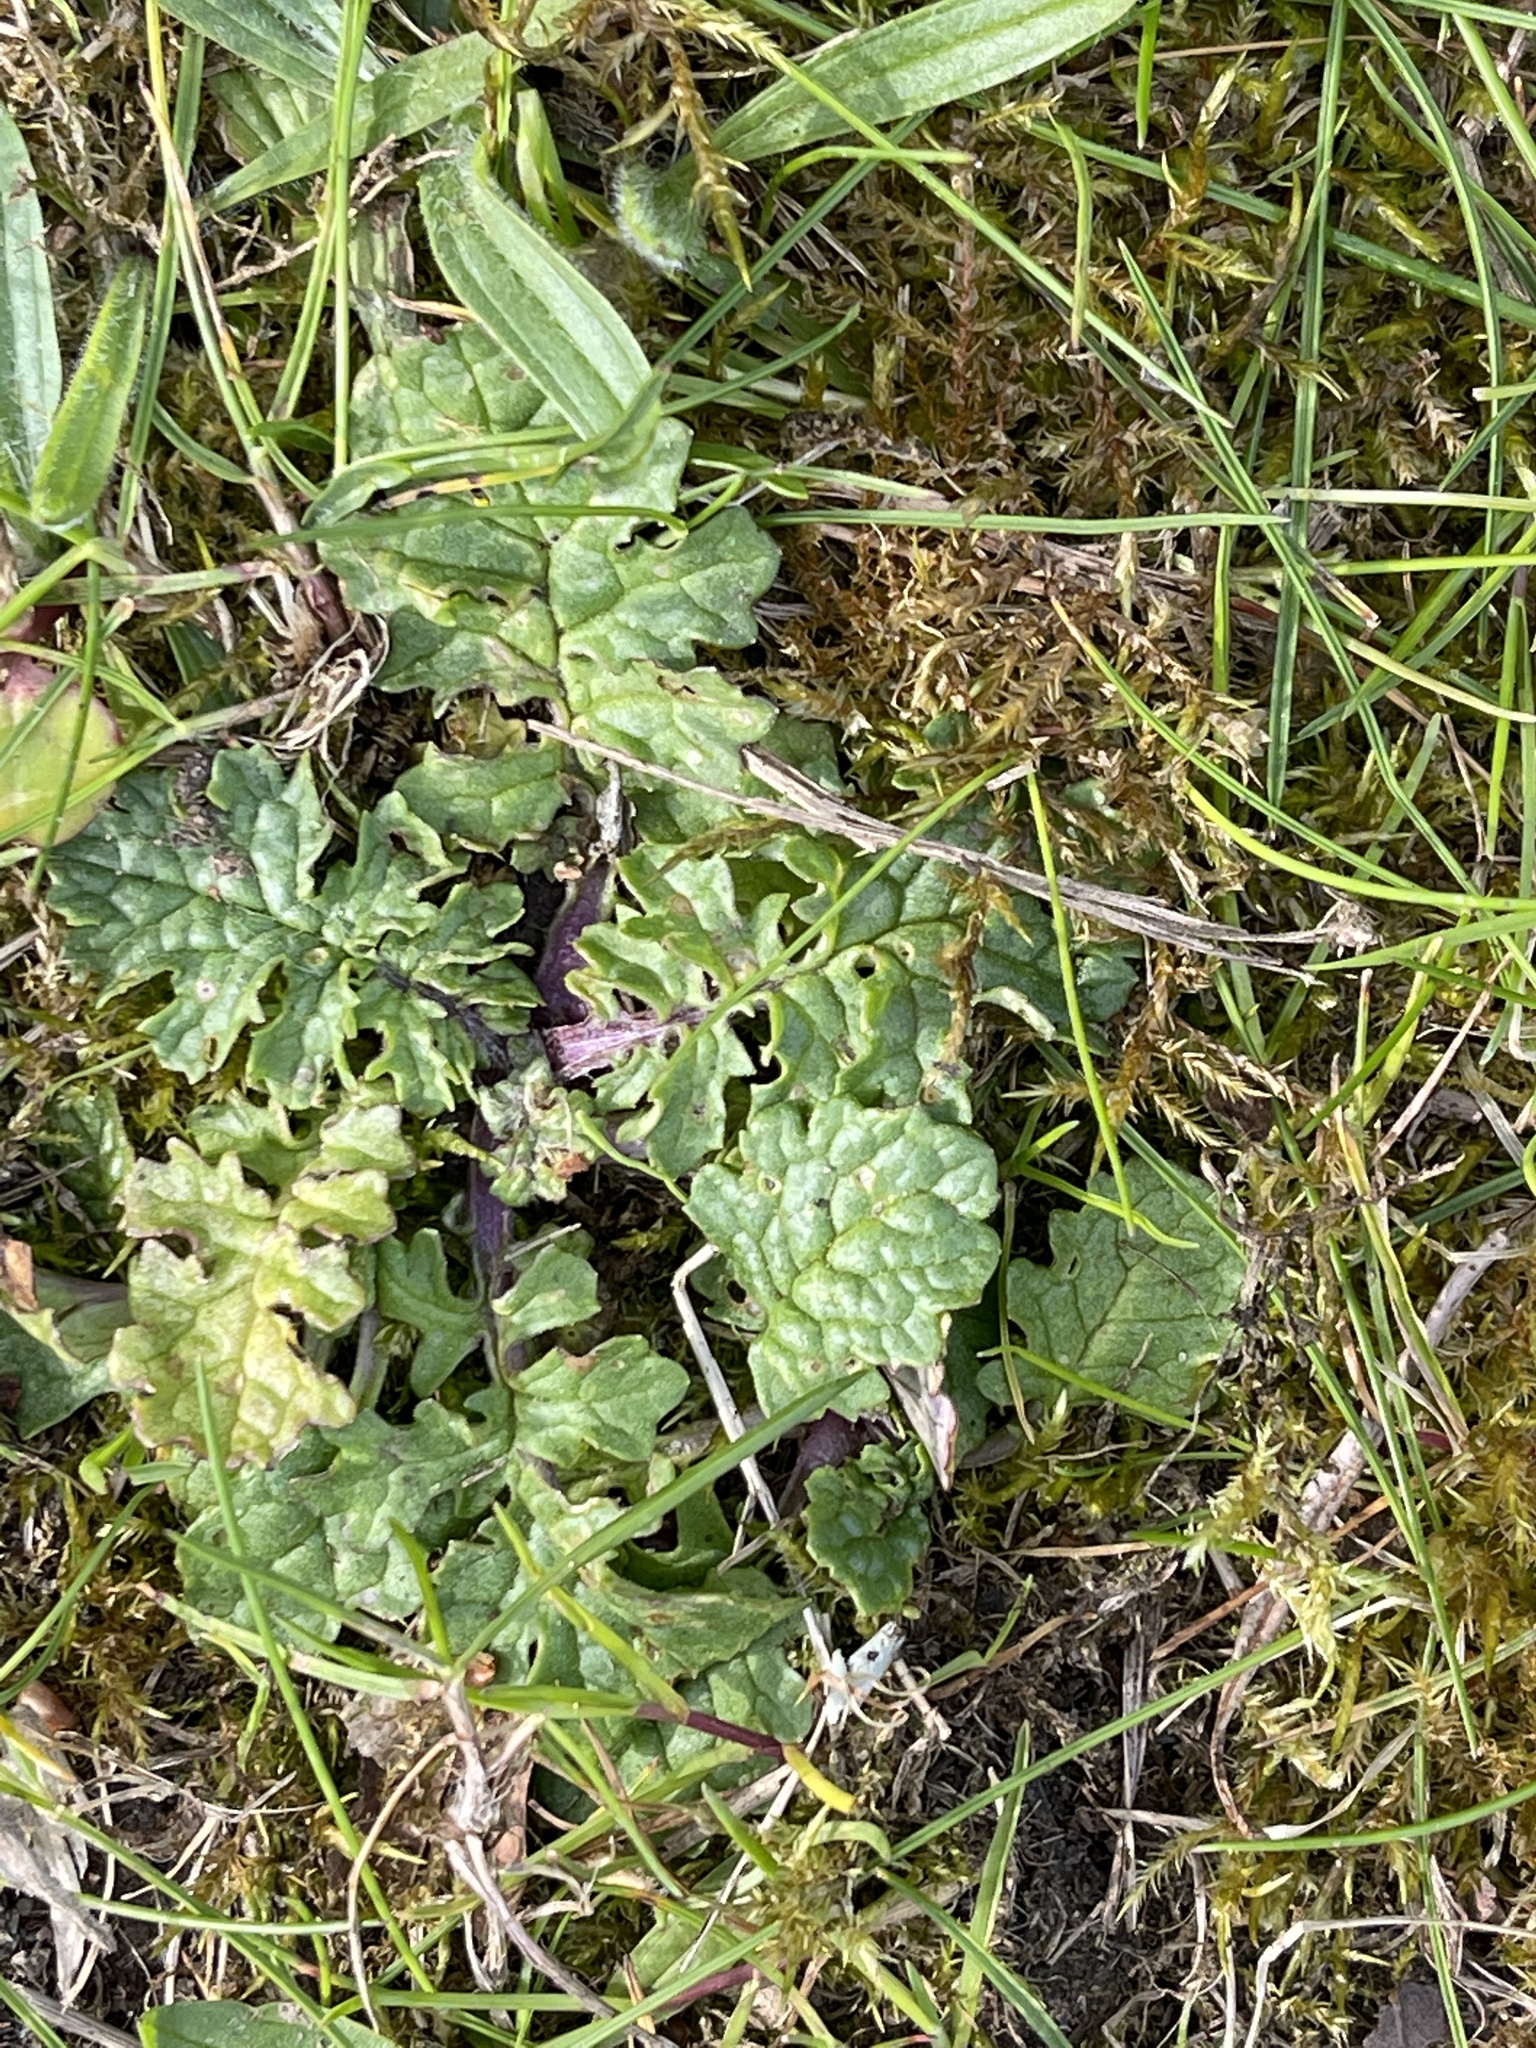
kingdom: Plantae
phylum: Tracheophyta
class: Magnoliopsida
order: Asterales
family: Asteraceae
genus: Jacobaea
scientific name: Jacobaea vulgaris
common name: Stinking willie
